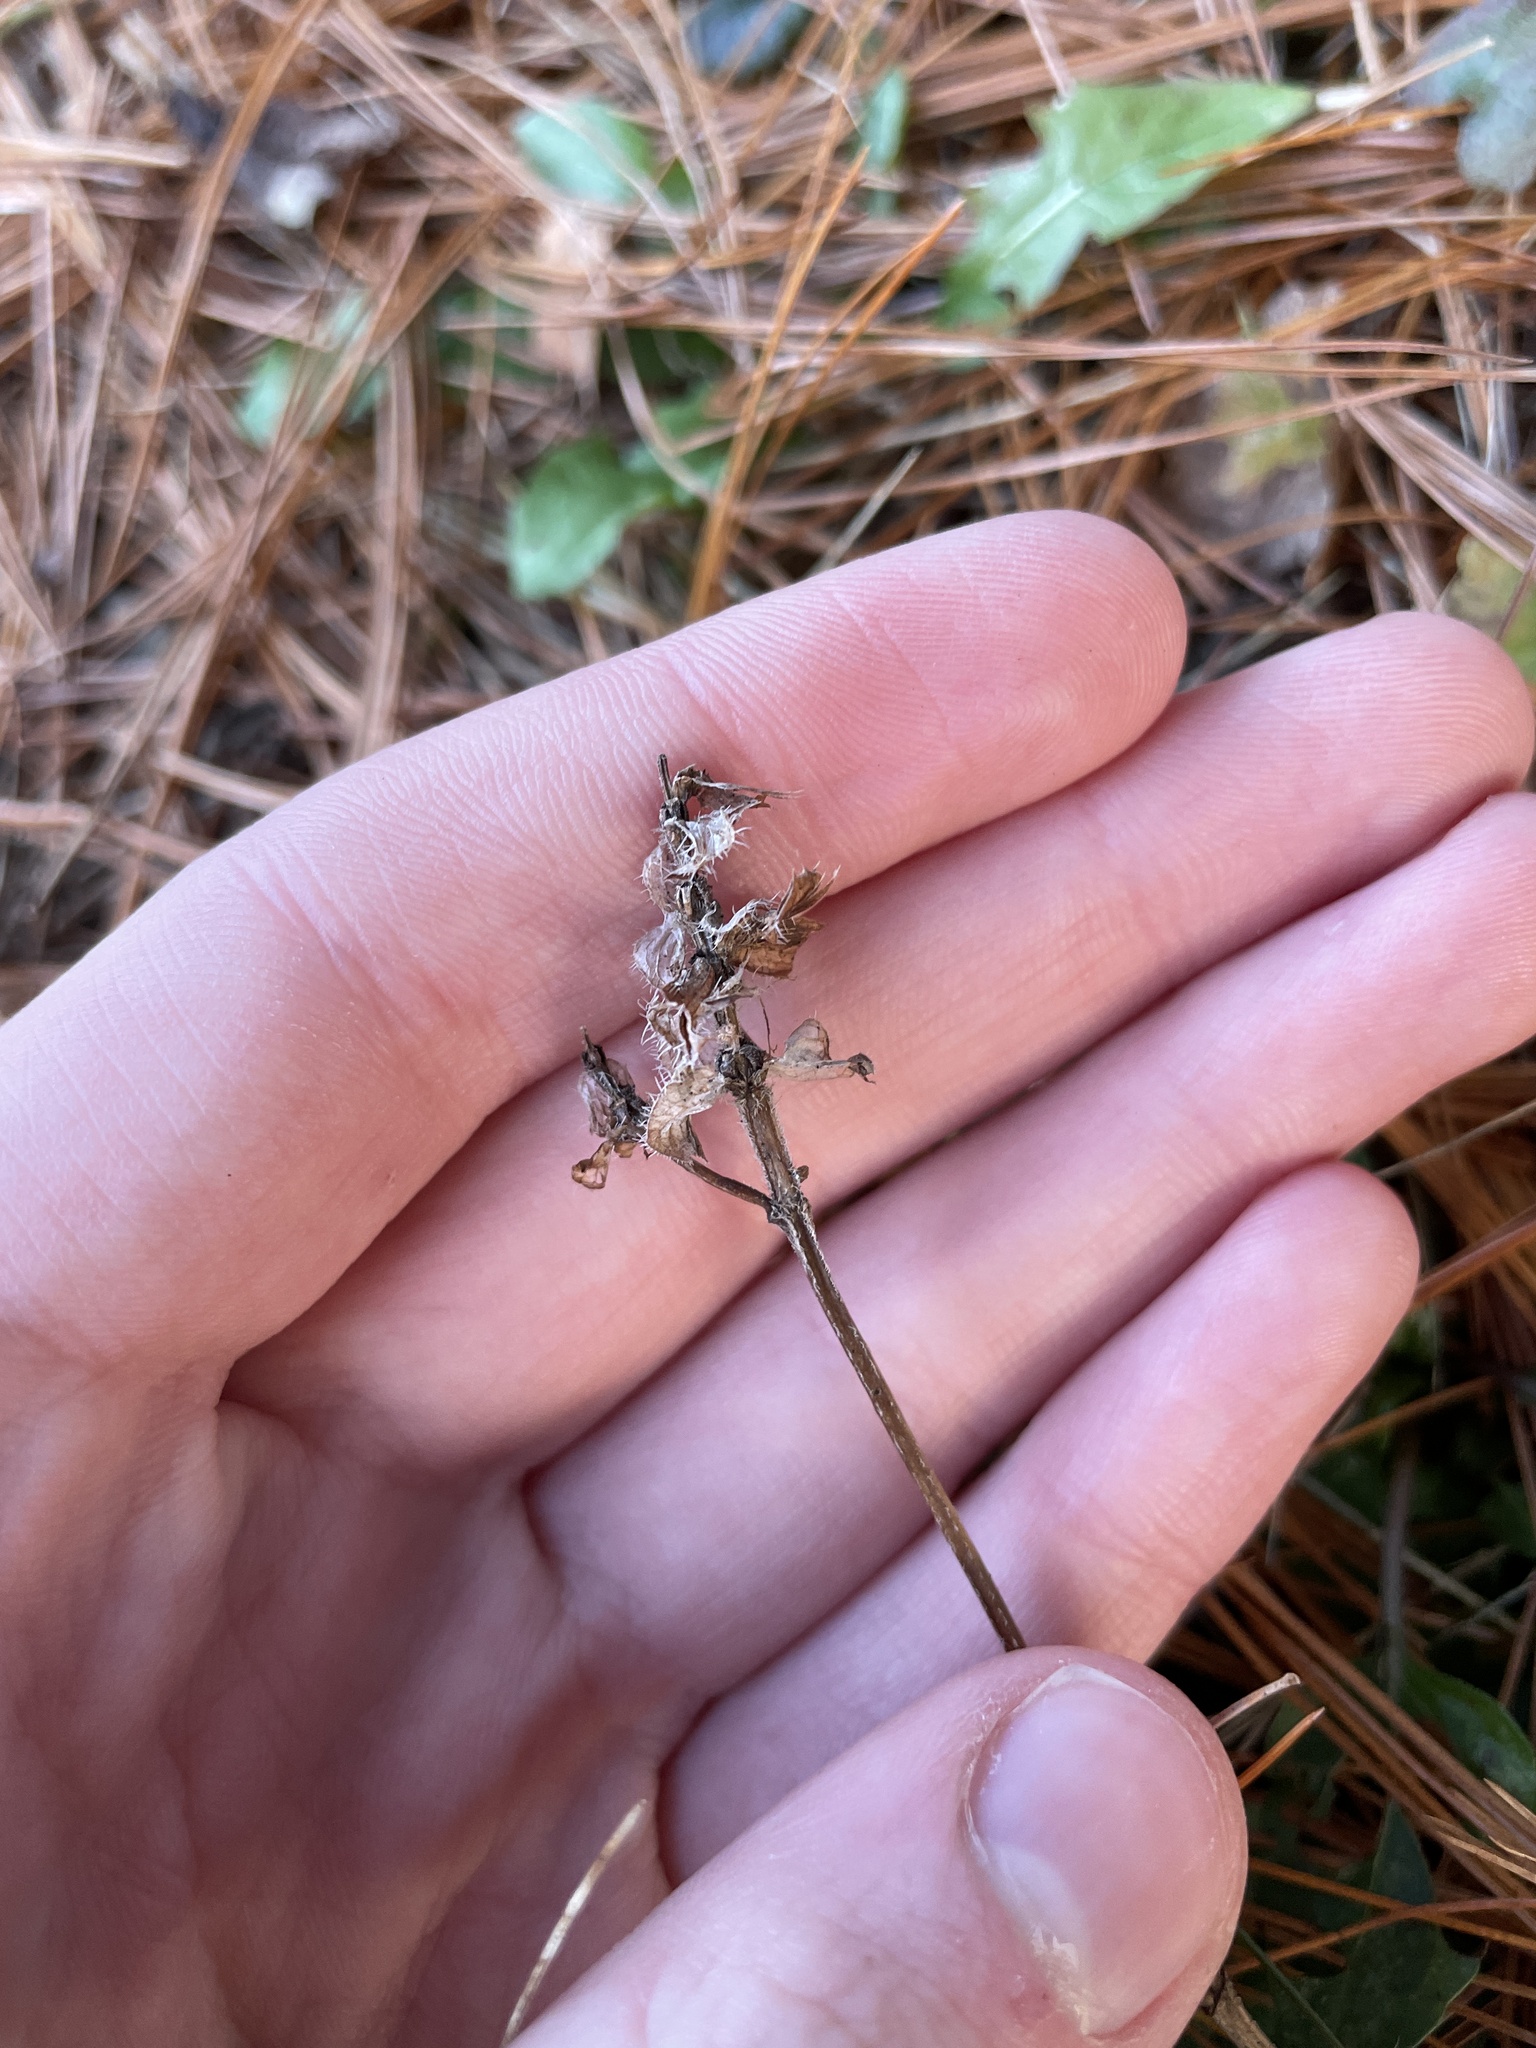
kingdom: Plantae
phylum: Tracheophyta
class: Magnoliopsida
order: Lamiales
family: Lamiaceae
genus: Prunella
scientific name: Prunella vulgaris
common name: Heal-all
